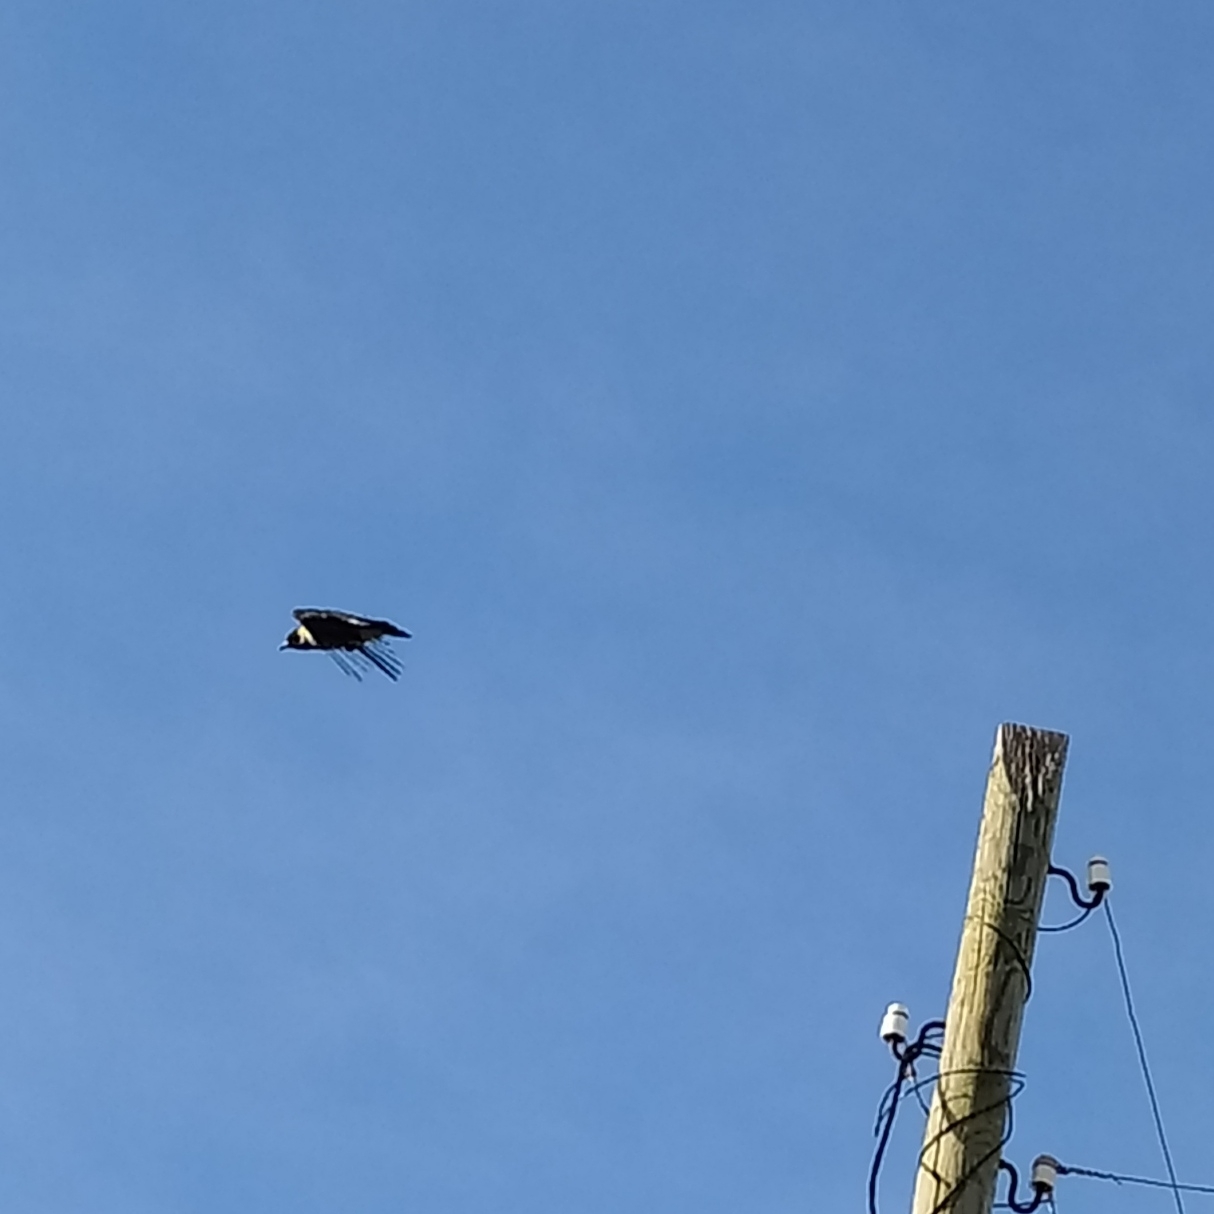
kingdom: Animalia
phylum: Chordata
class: Aves
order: Passeriformes
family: Corvidae
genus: Corvus
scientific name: Corvus cornix
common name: Hooded crow
